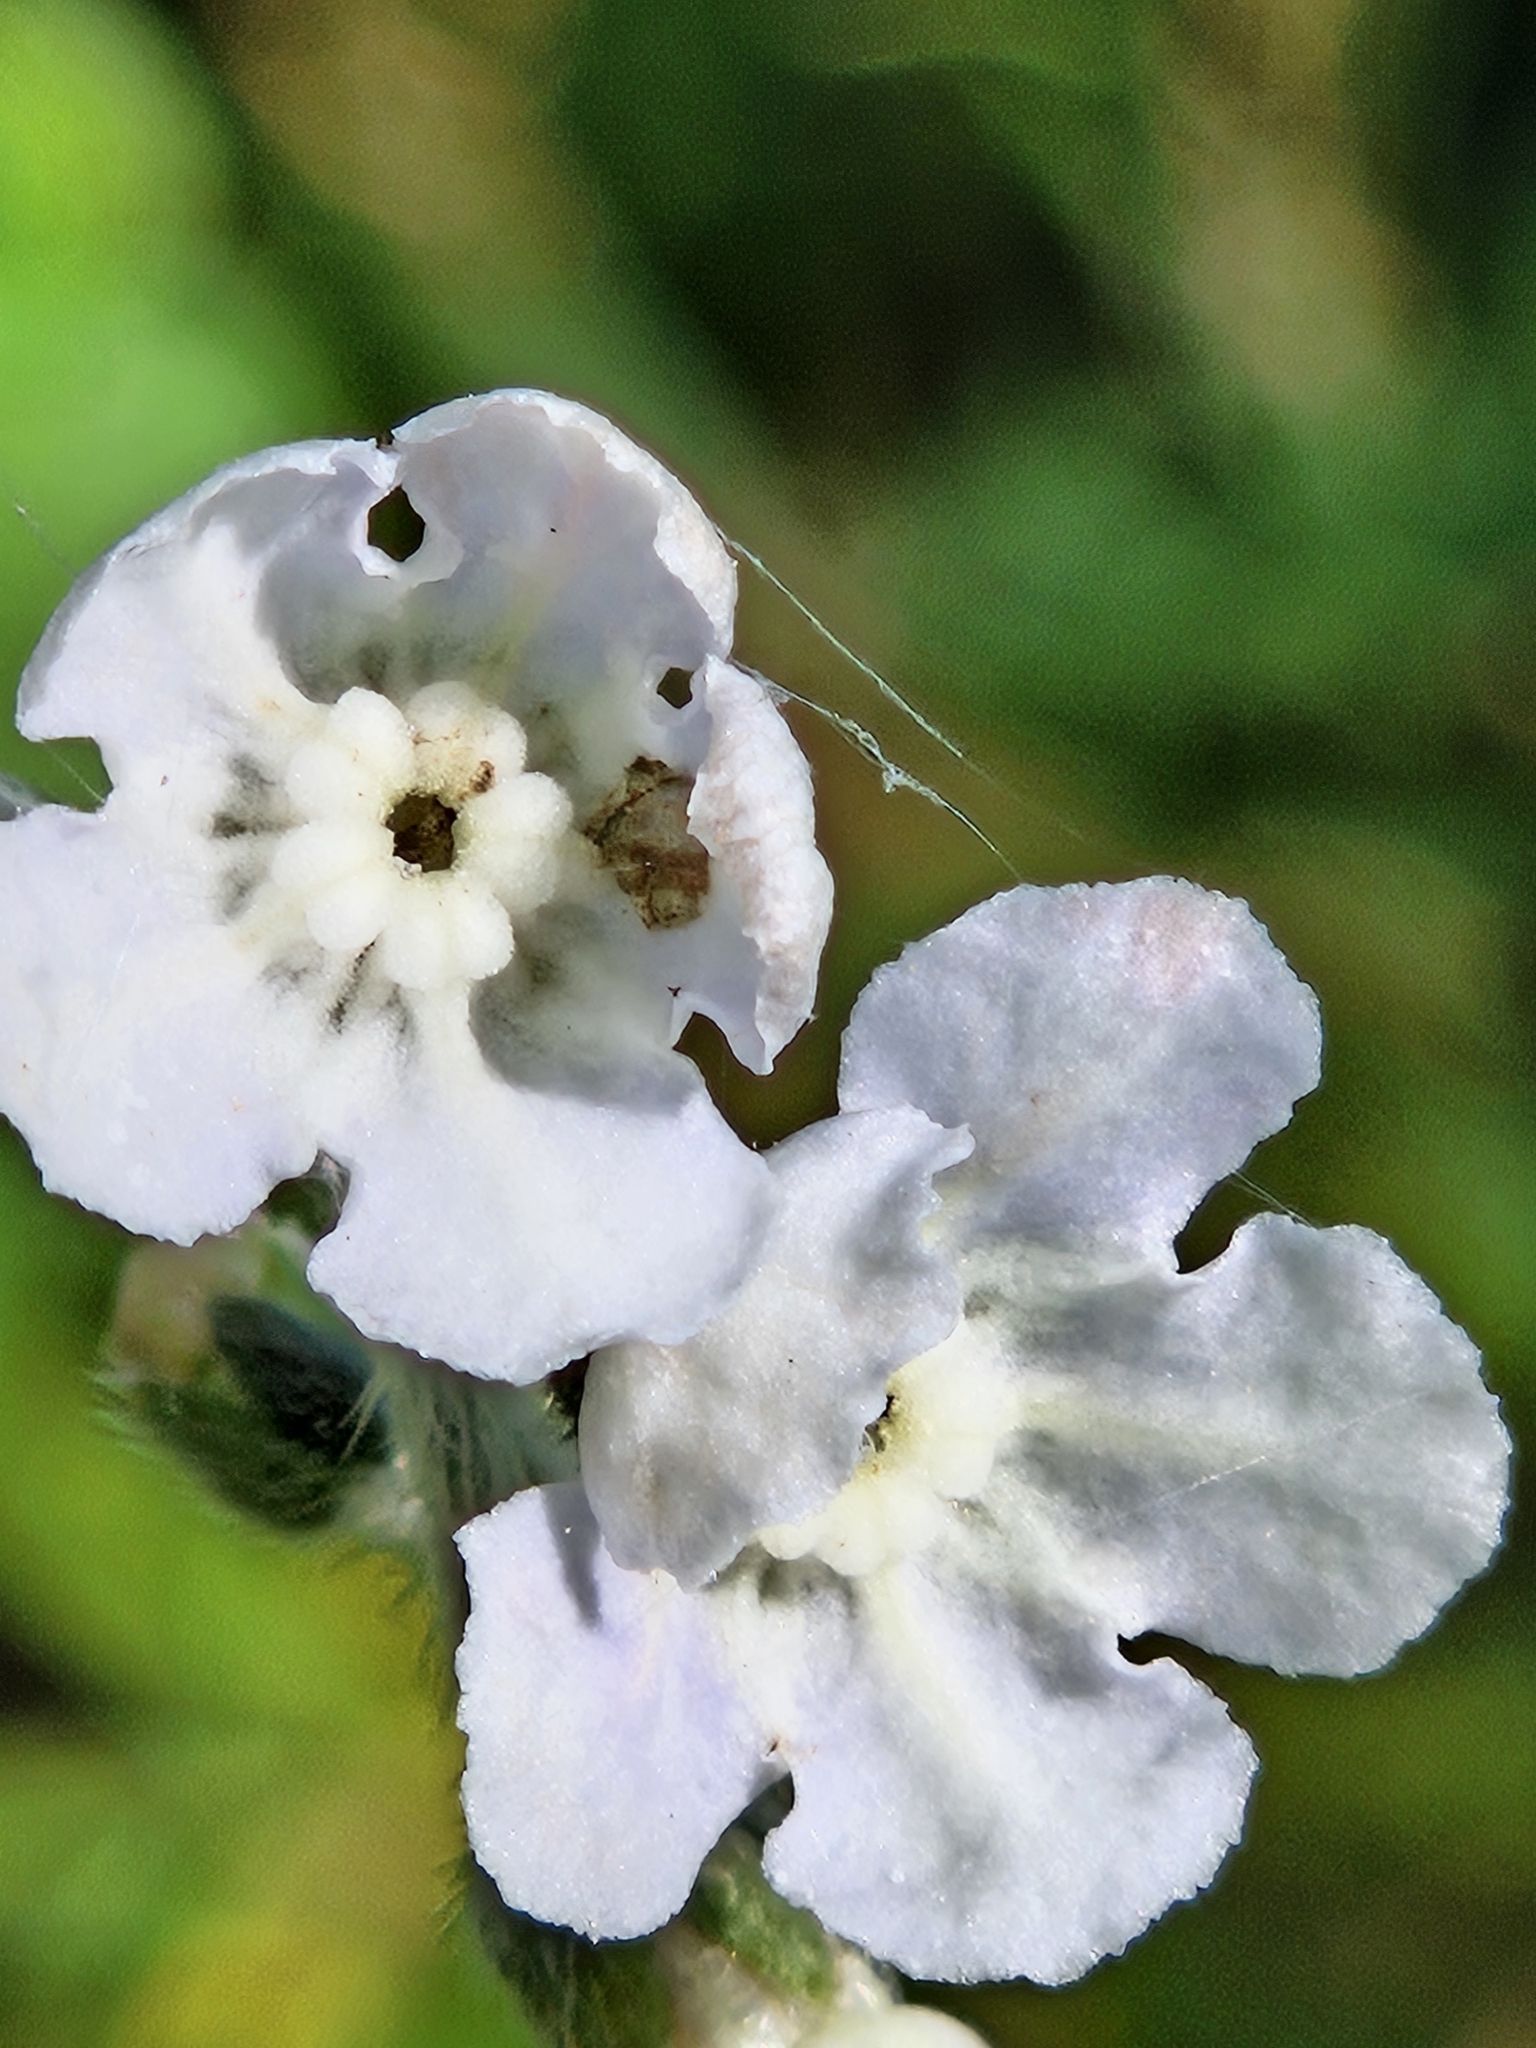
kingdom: Plantae
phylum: Tracheophyta
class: Magnoliopsida
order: Boraginales
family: Boraginaceae
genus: Andersonglossum
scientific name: Andersonglossum virginianum
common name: Wild comfrey
